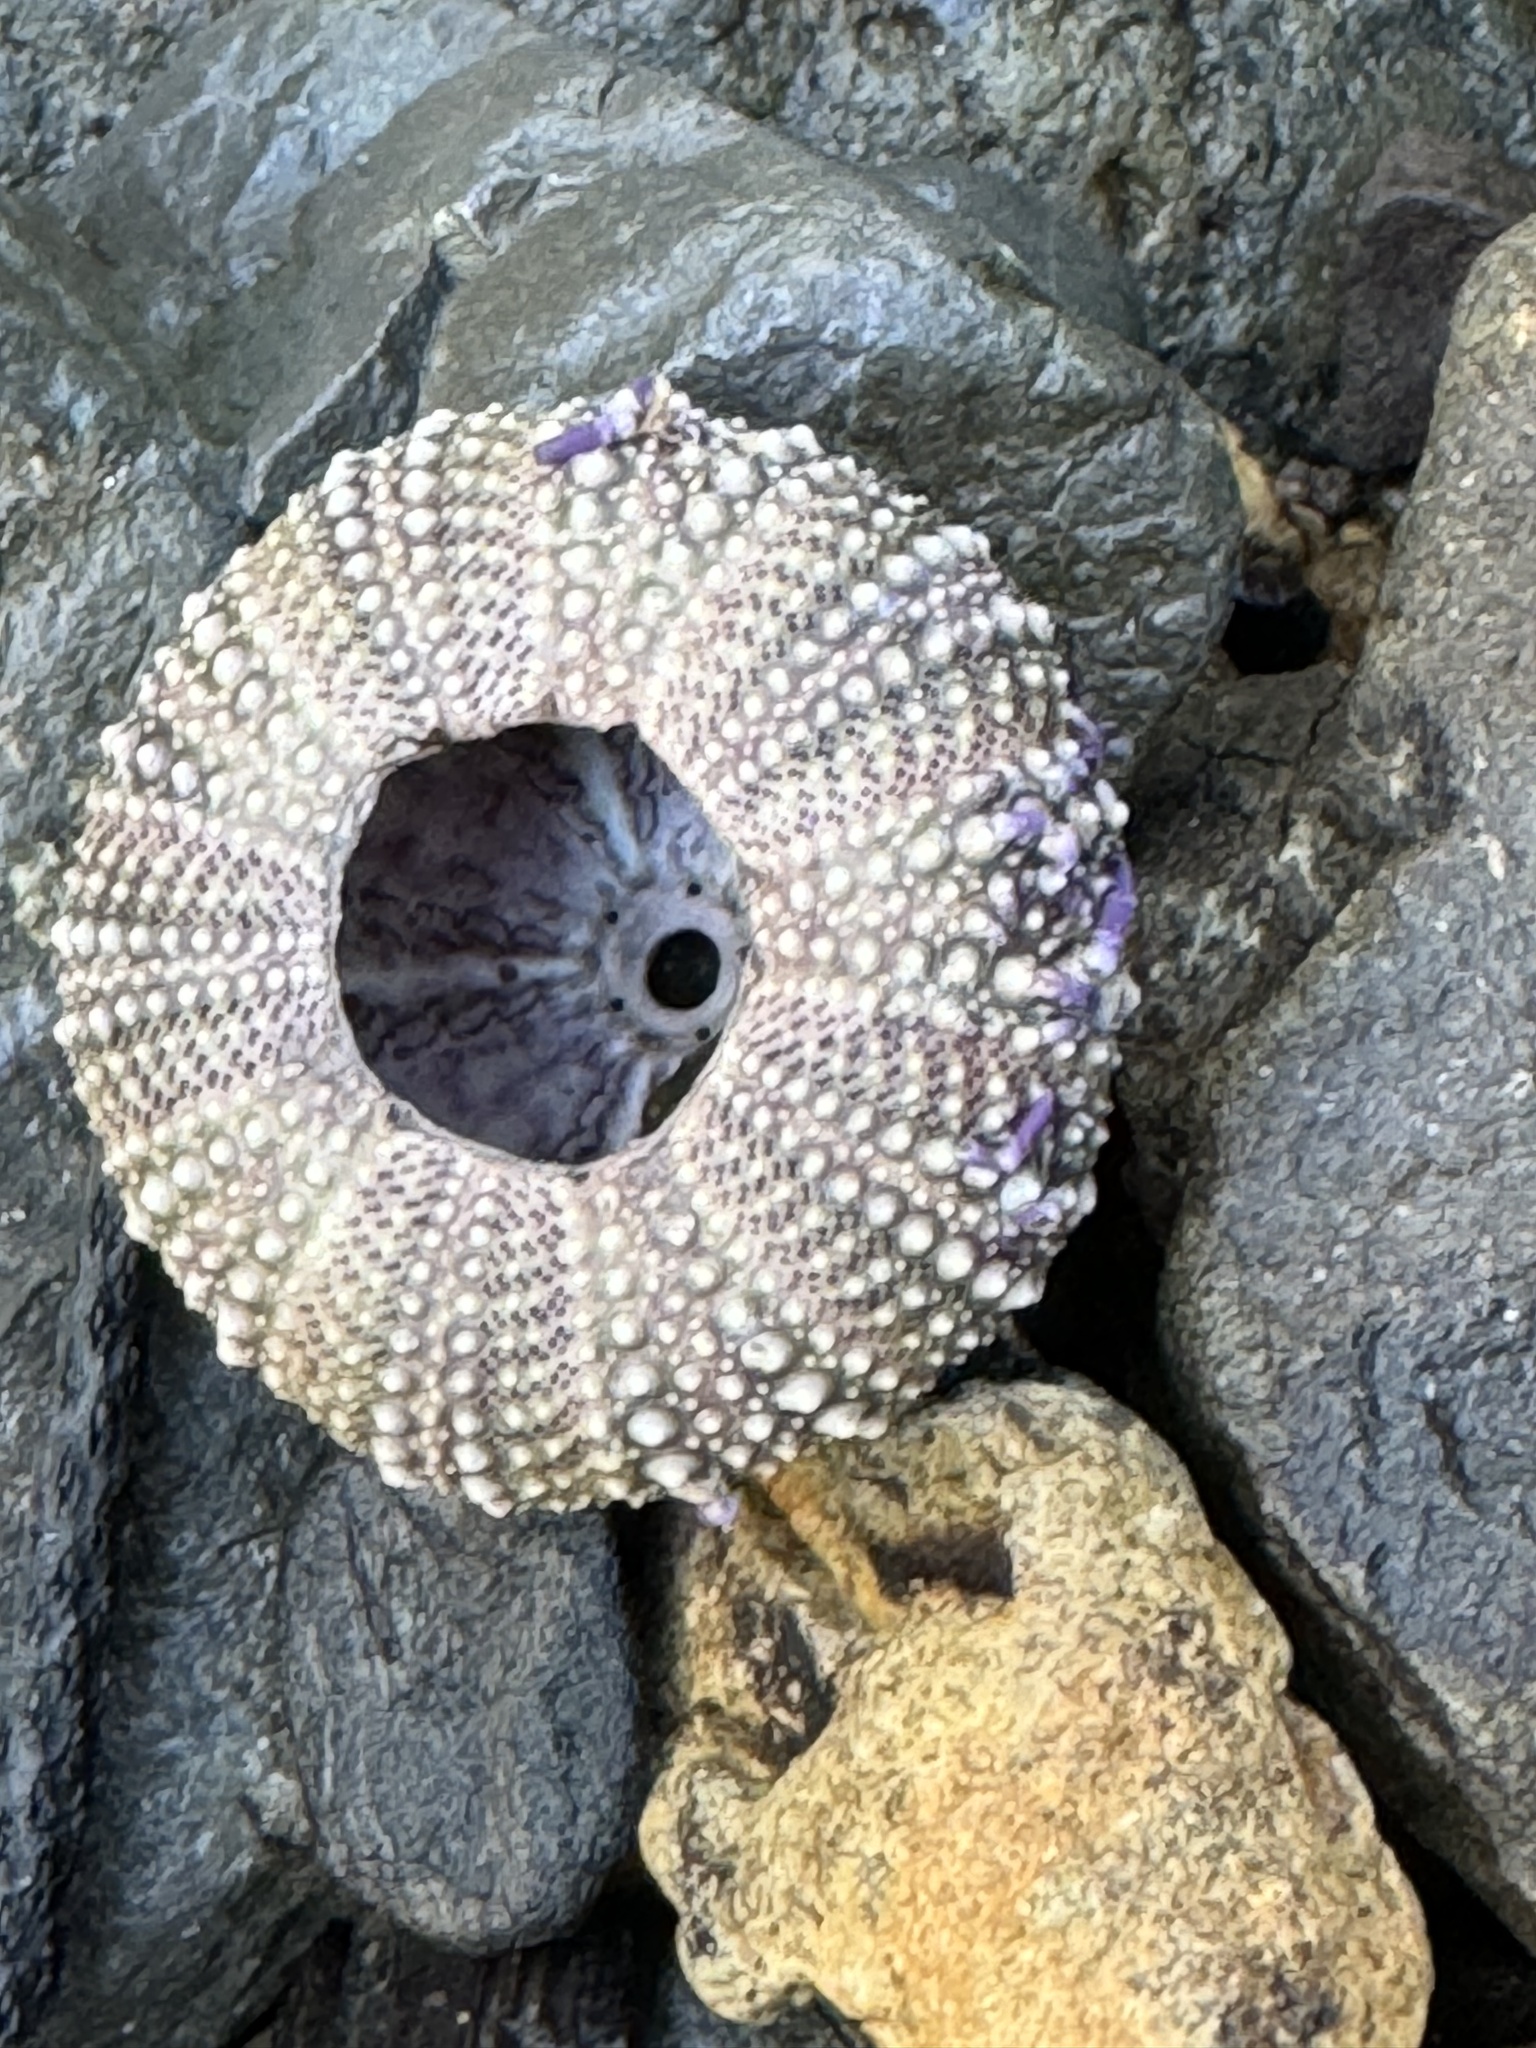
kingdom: Animalia
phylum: Echinodermata
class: Echinoidea
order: Camarodonta
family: Strongylocentrotidae
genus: Strongylocentrotus
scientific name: Strongylocentrotus purpuratus
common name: Purple sea urchin
